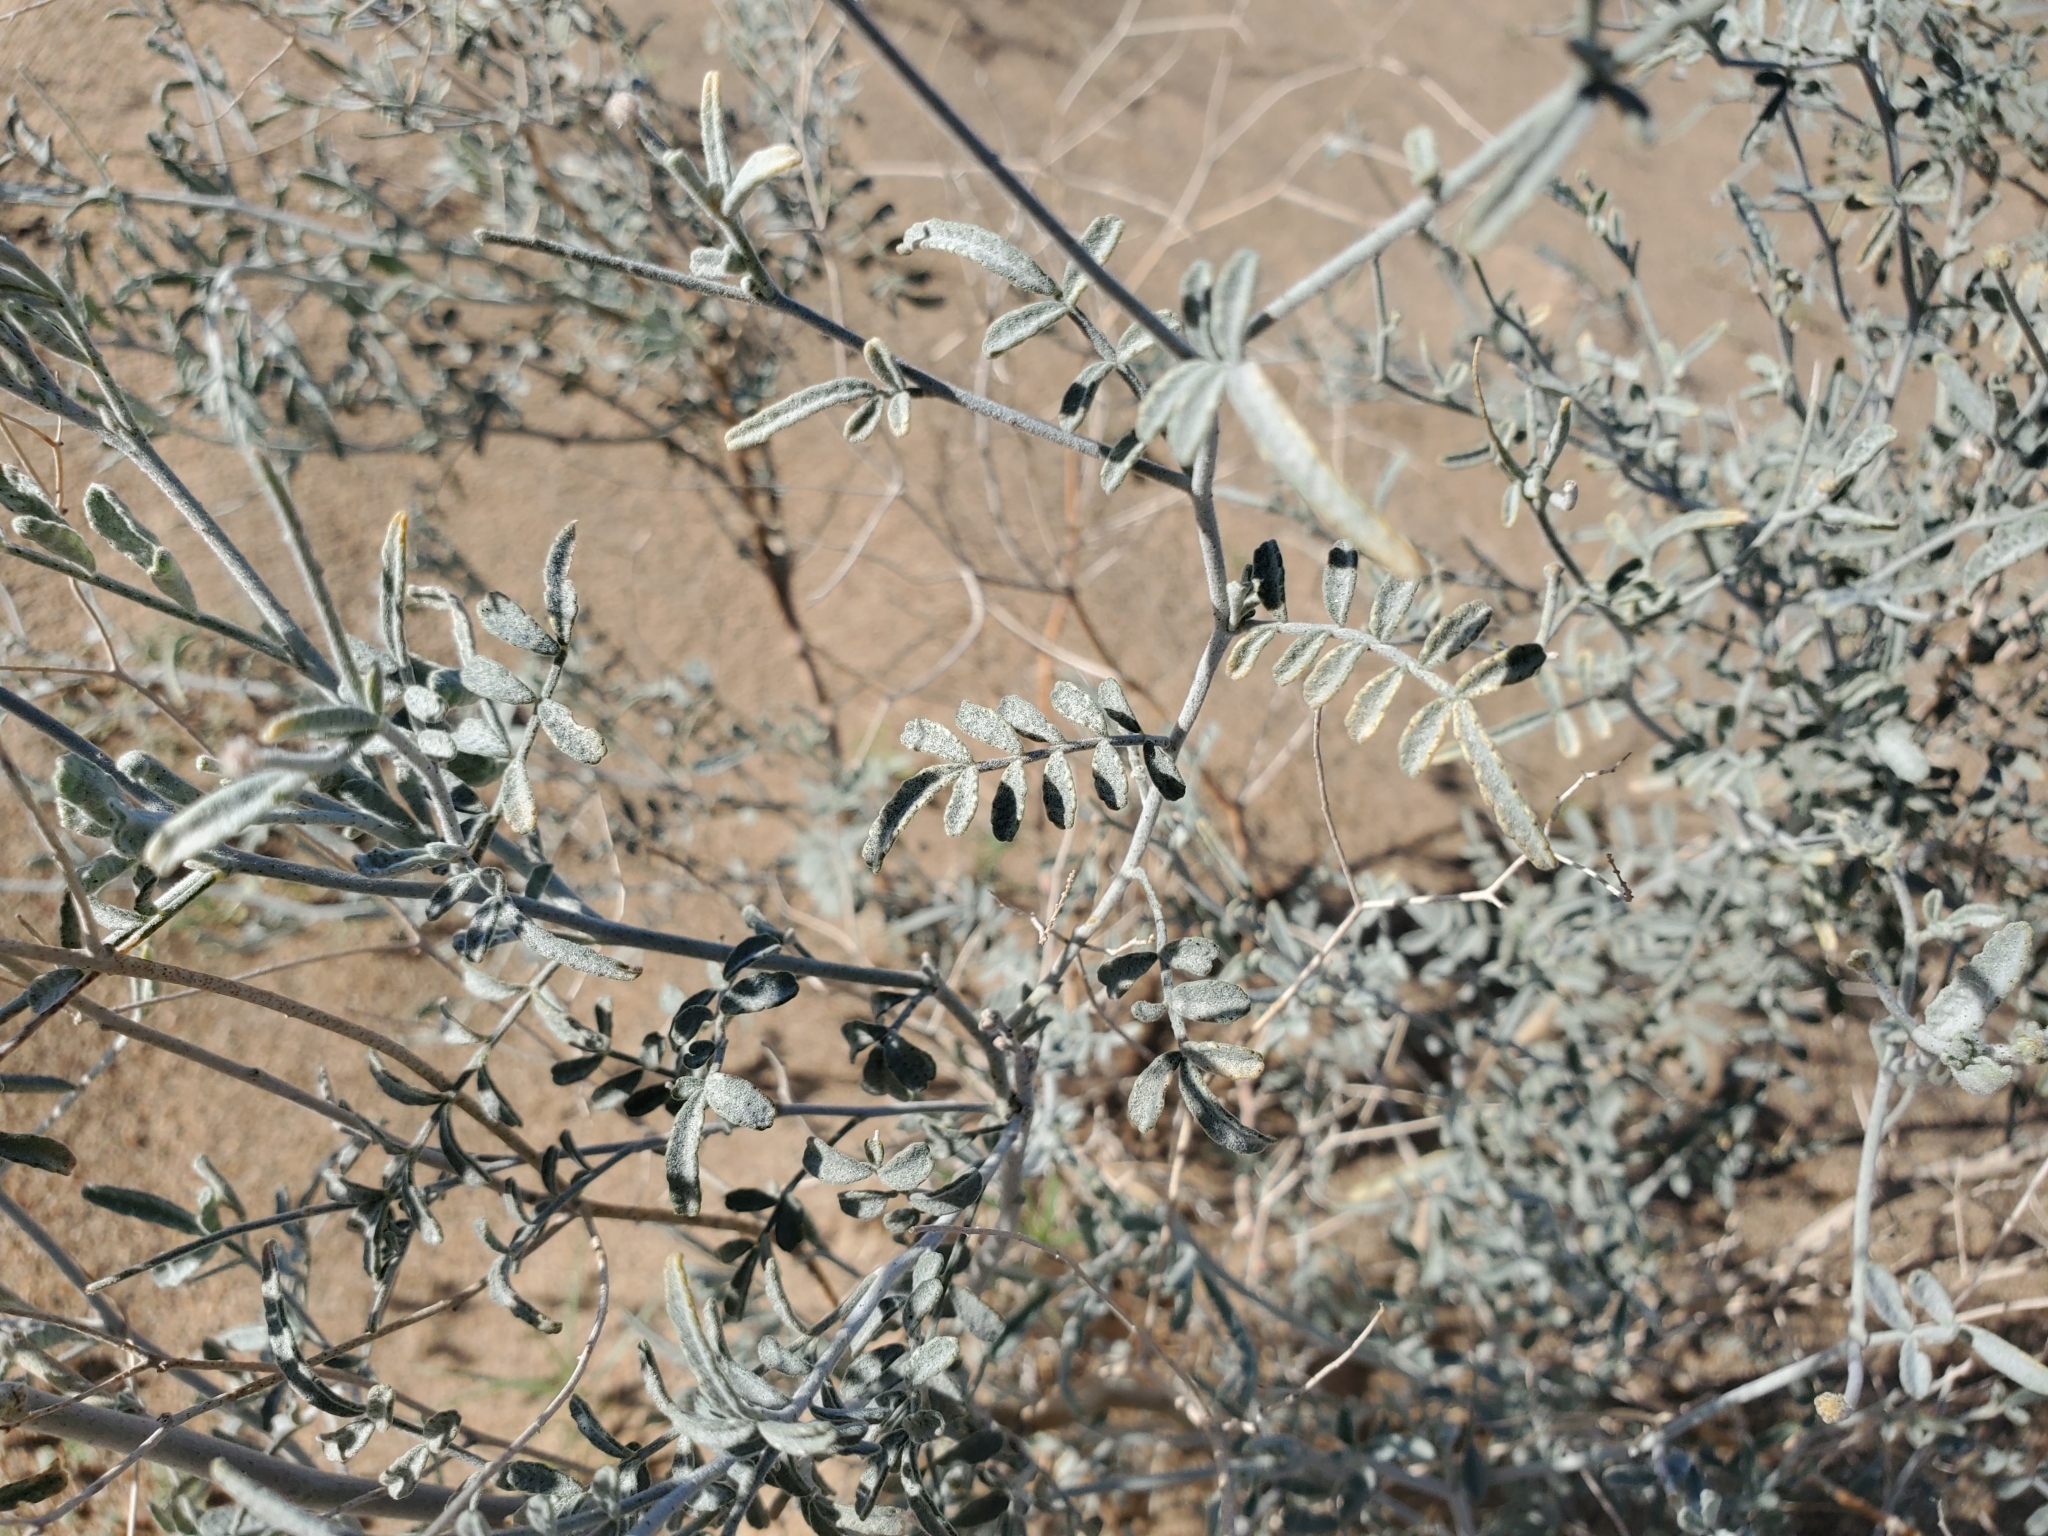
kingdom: Plantae
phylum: Tracheophyta
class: Magnoliopsida
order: Fabales
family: Fabaceae
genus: Psorothamnus
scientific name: Psorothamnus emoryi
